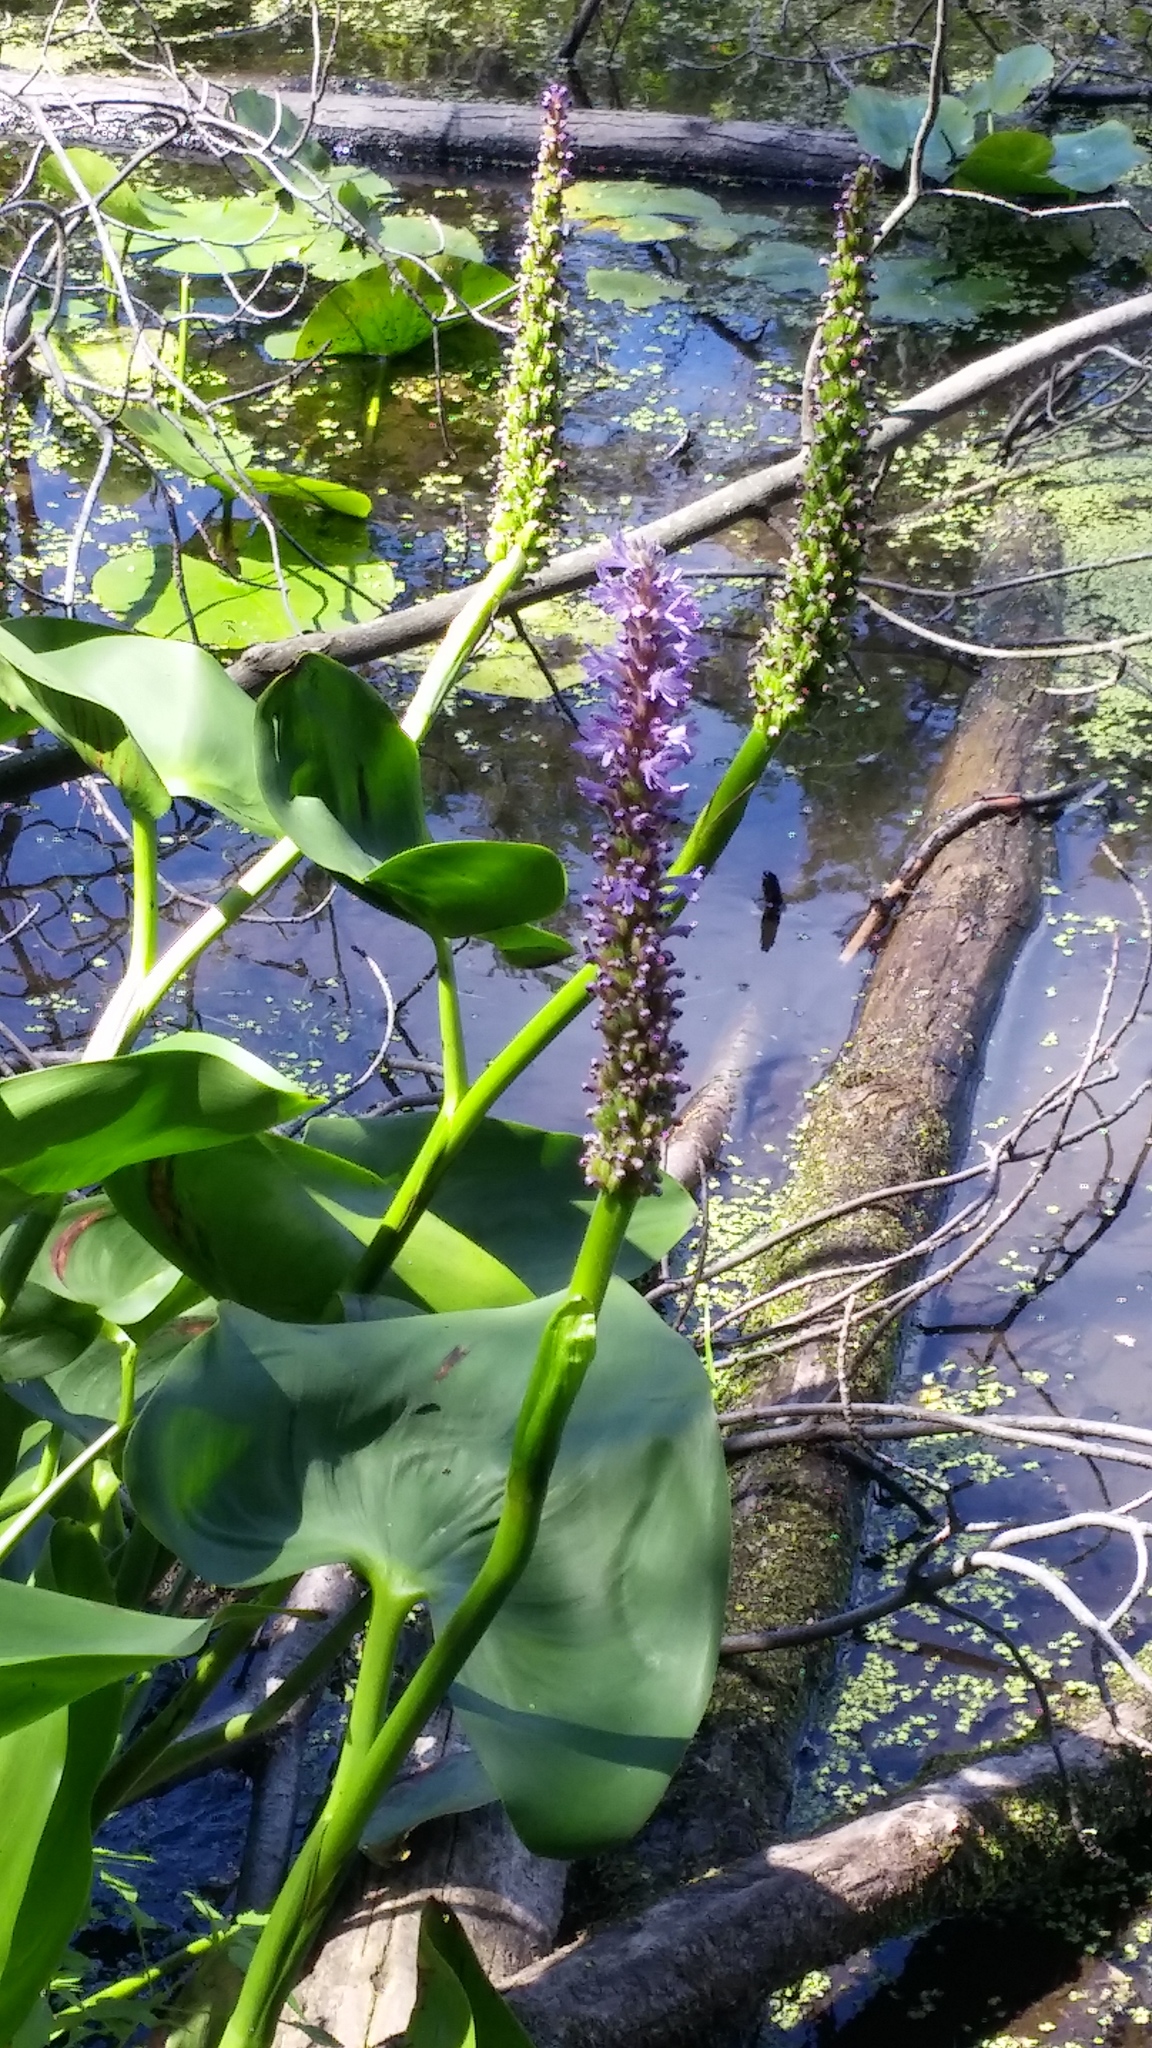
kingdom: Plantae
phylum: Tracheophyta
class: Liliopsida
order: Commelinales
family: Pontederiaceae
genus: Pontederia
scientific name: Pontederia cordata
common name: Pickerelweed
